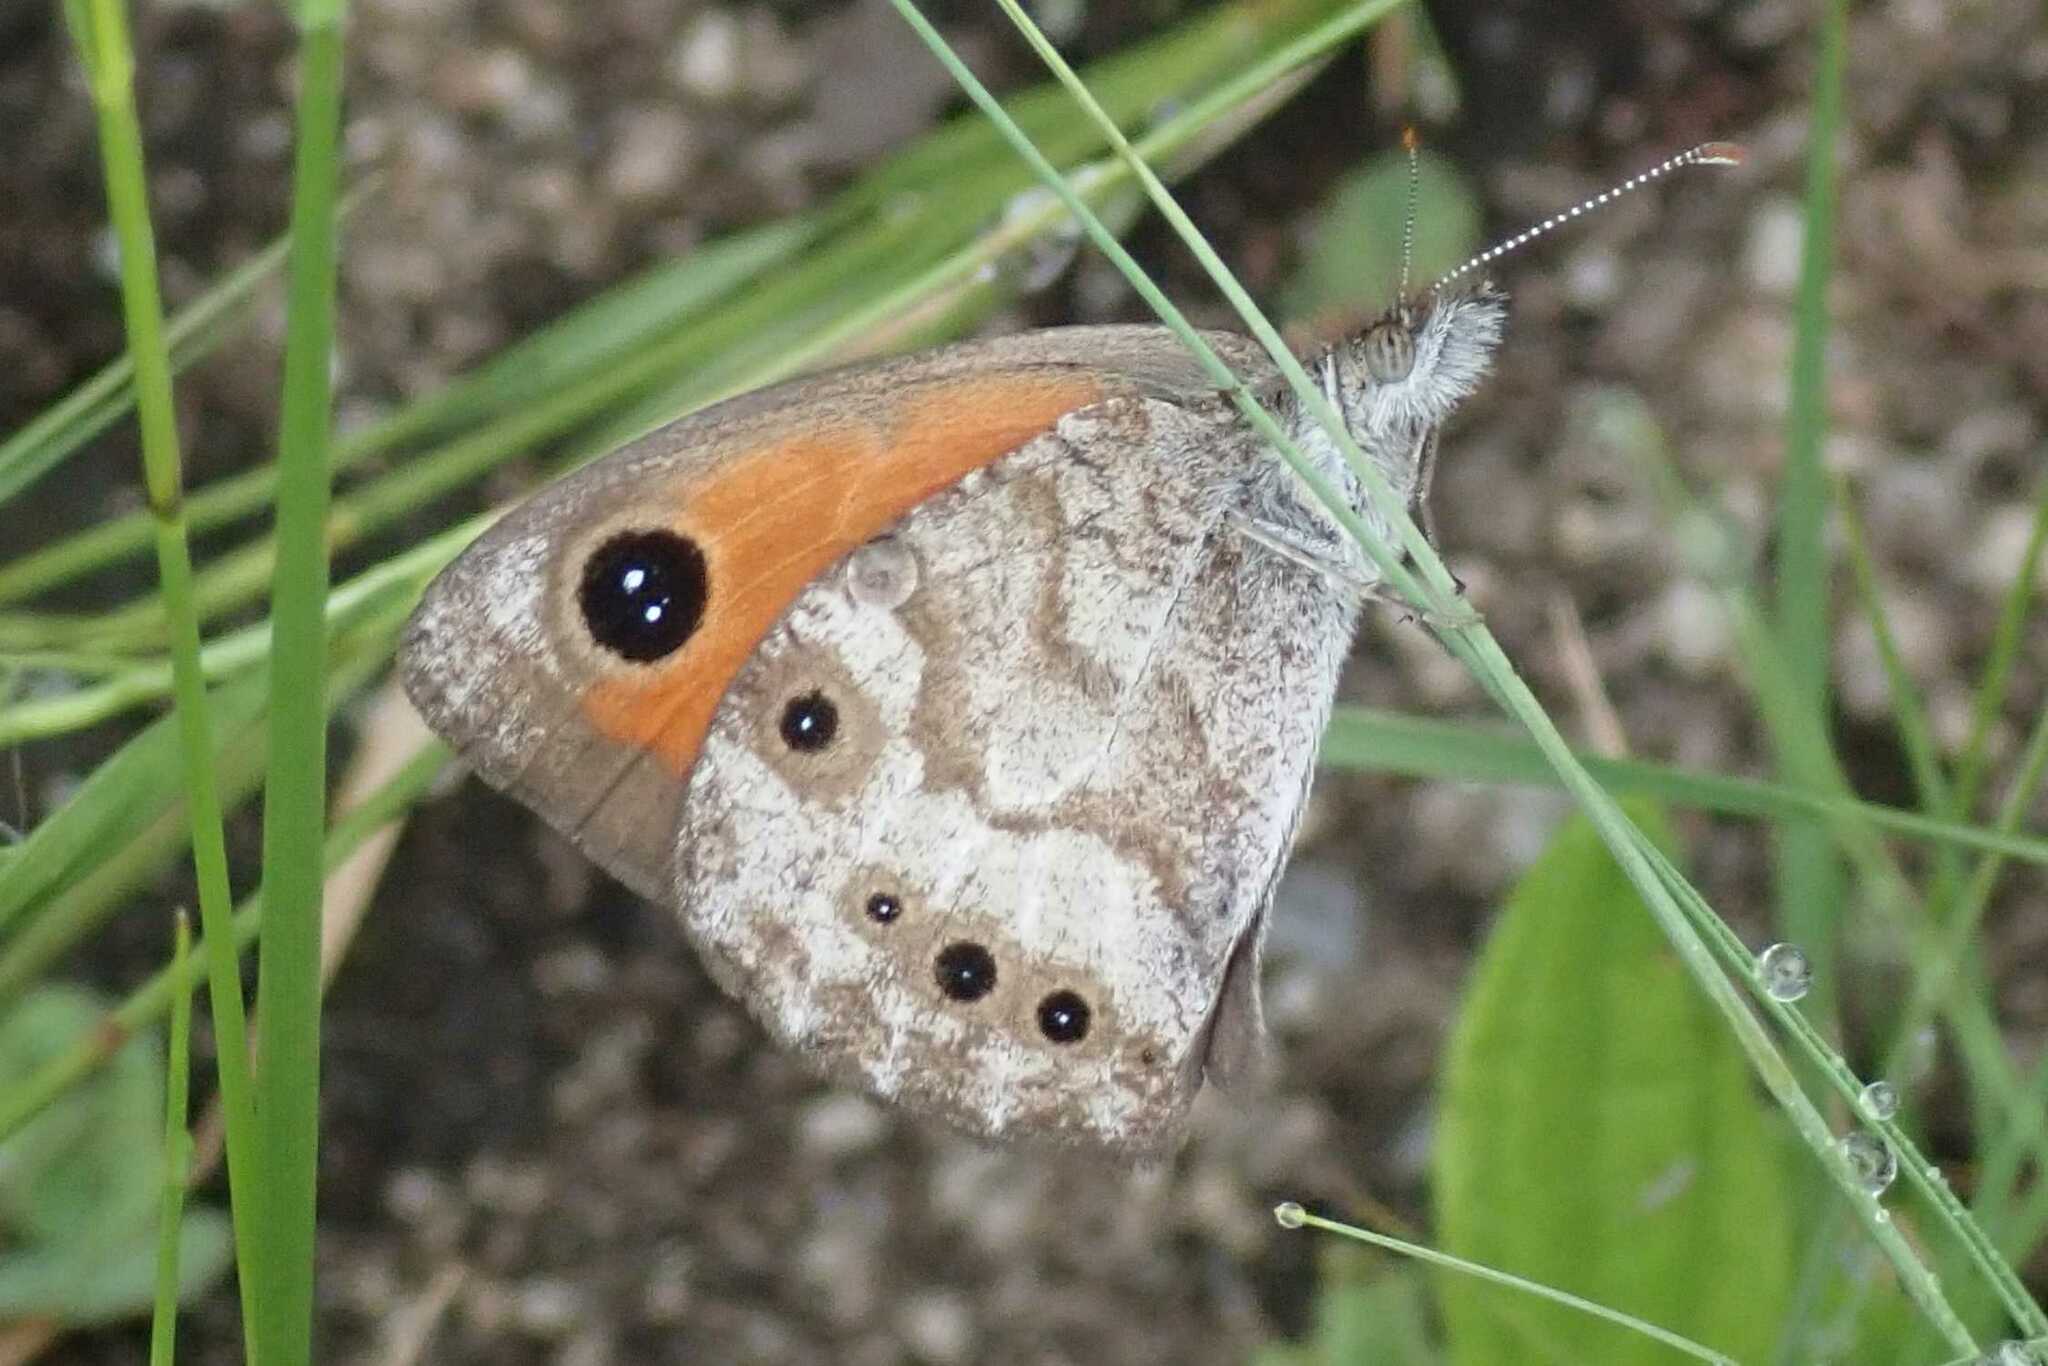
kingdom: Animalia
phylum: Arthropoda
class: Insecta
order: Lepidoptera
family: Nymphalidae
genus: Pseudonympha
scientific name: Pseudonympha magoides
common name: False silver-bottom brown
